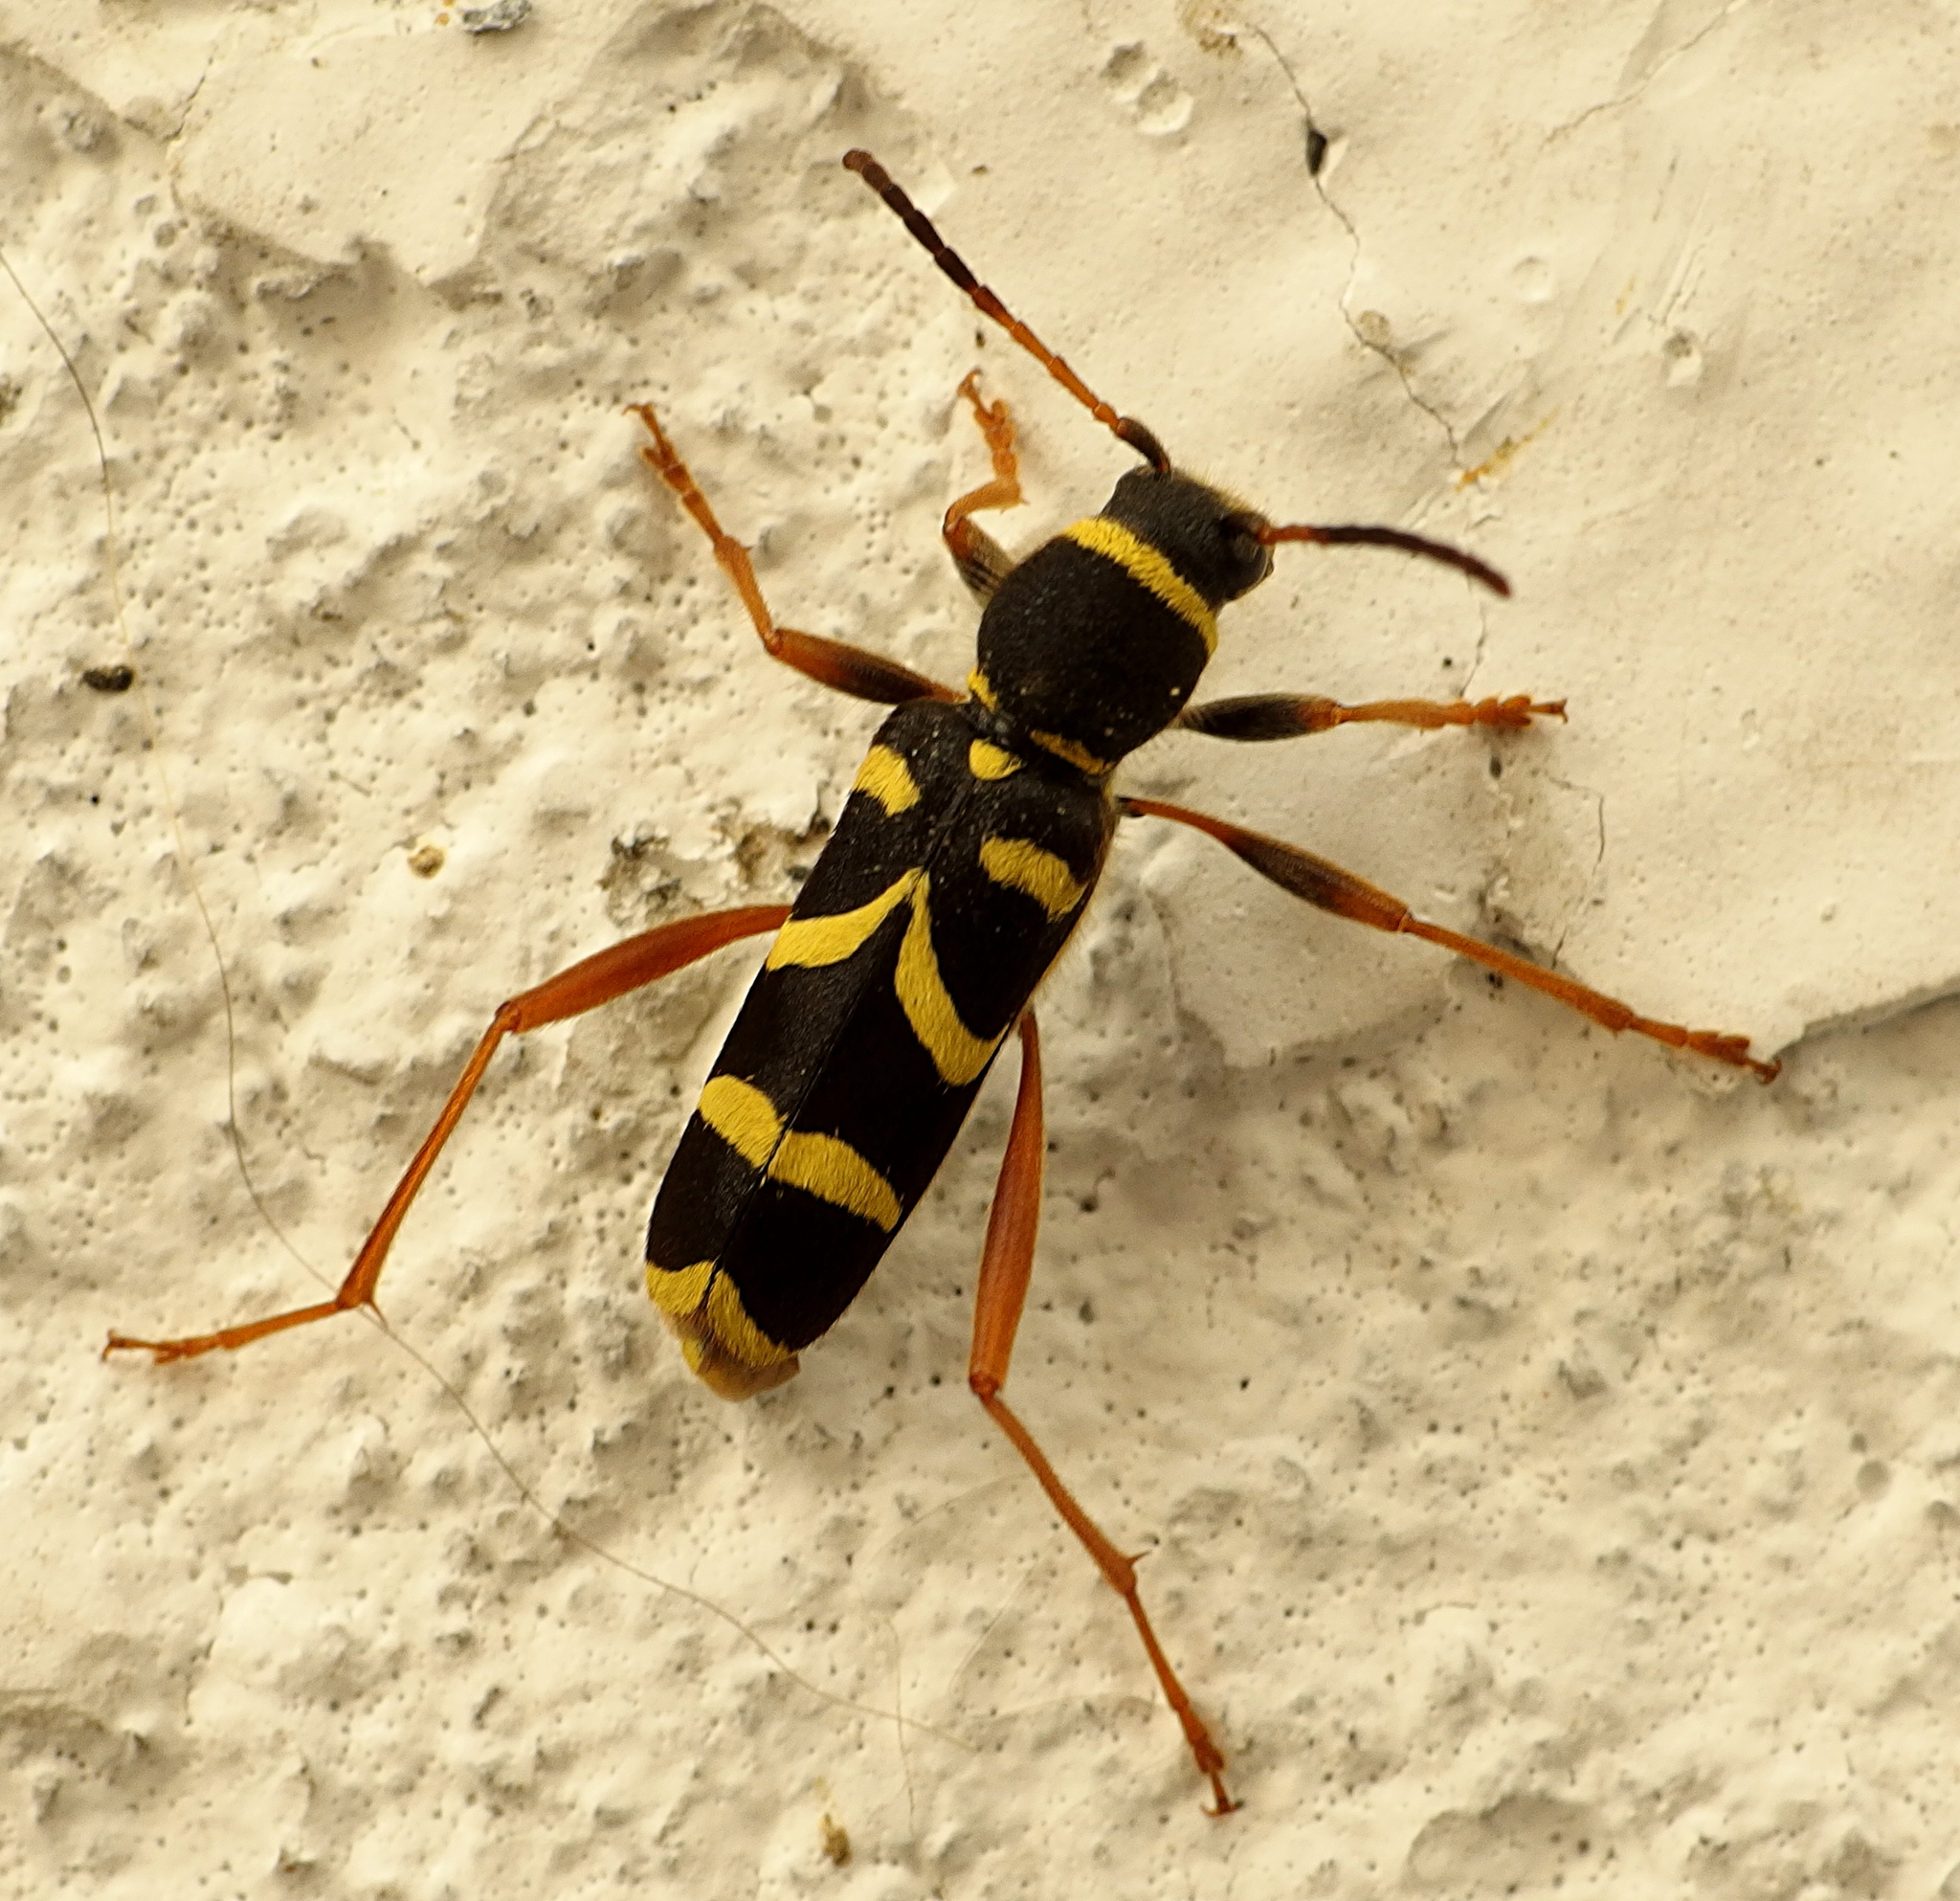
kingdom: Animalia
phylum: Arthropoda
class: Insecta
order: Coleoptera
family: Cerambycidae
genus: Clytus
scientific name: Clytus arietis
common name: Wasp beetle
